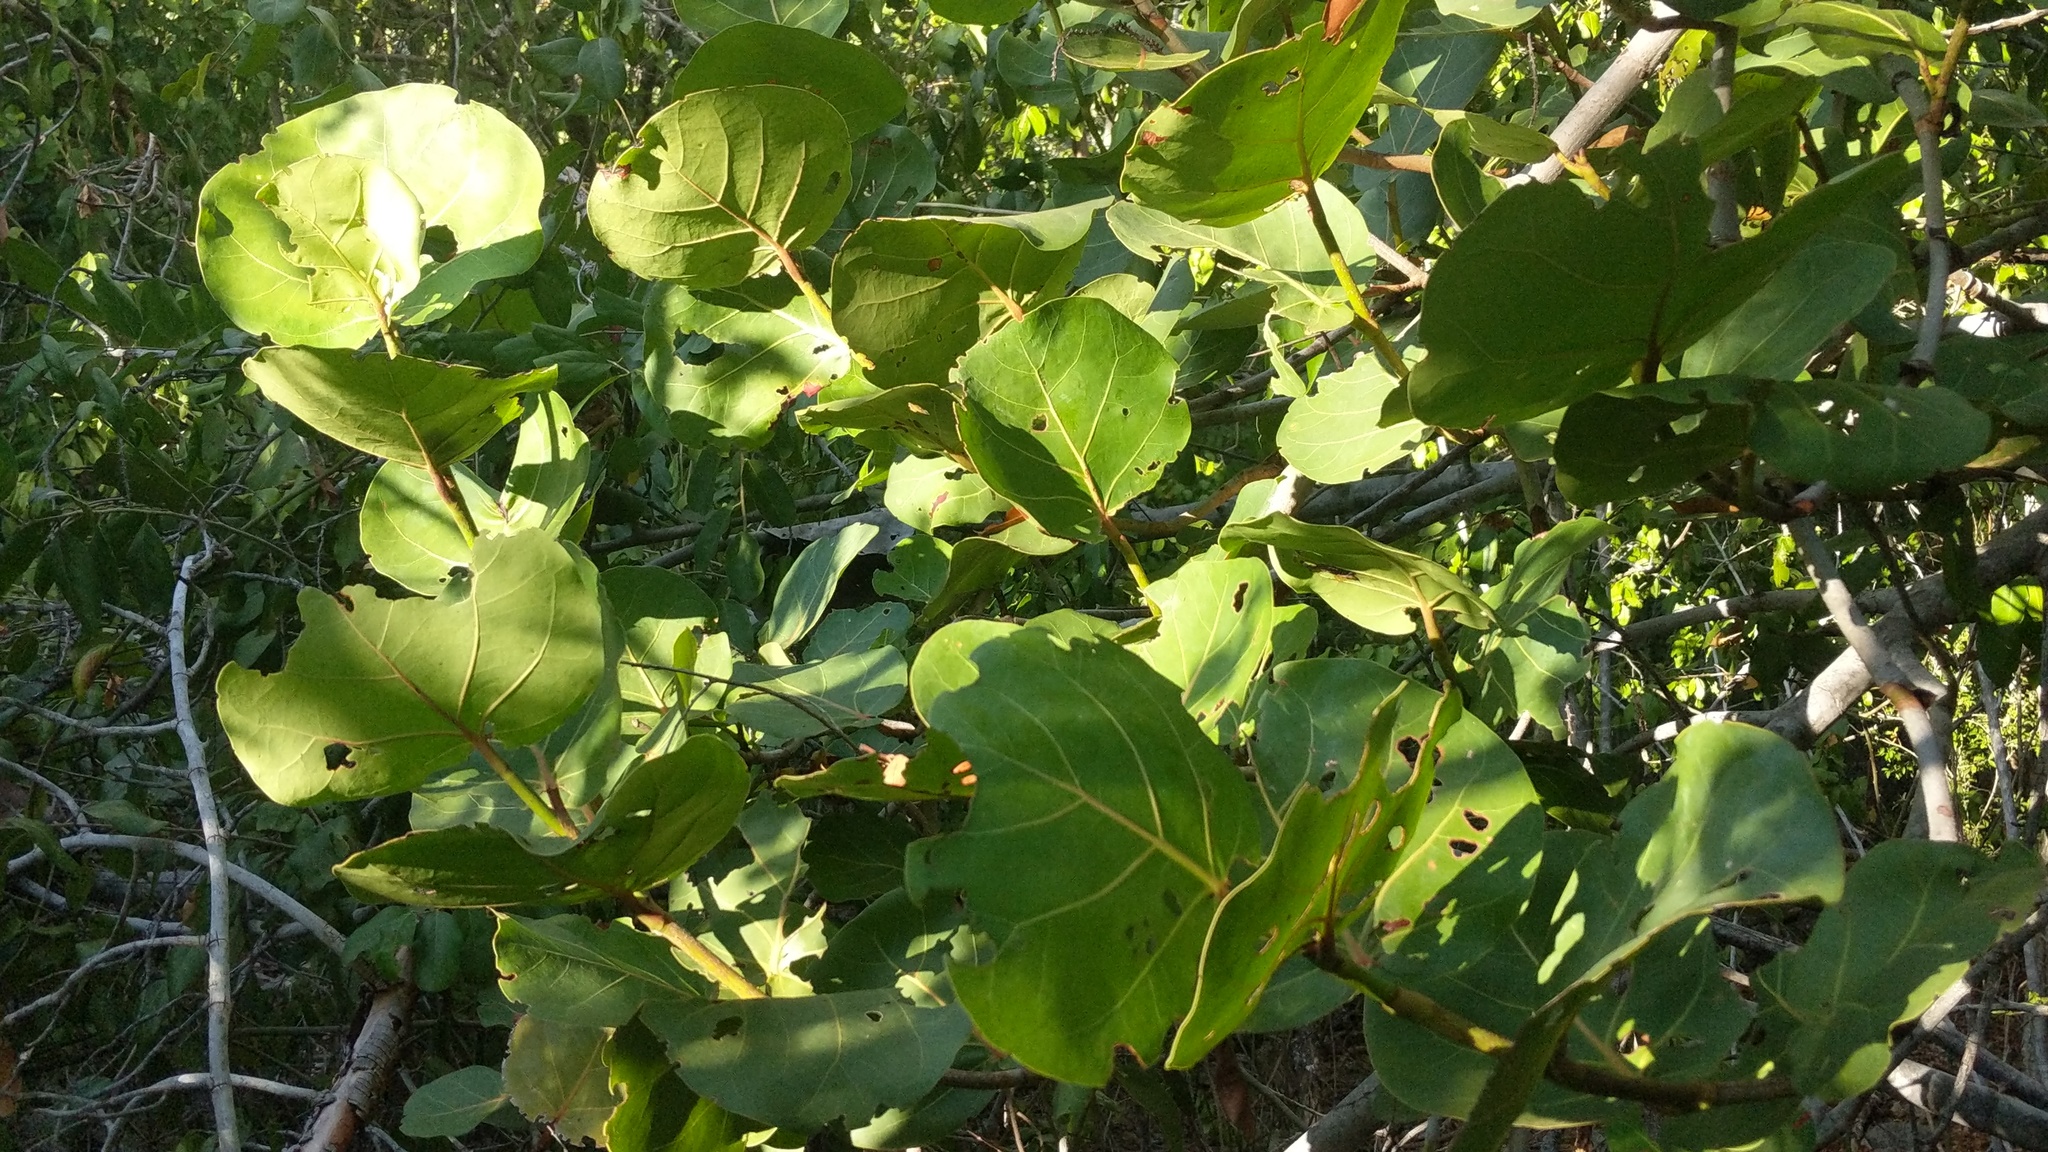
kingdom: Plantae
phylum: Tracheophyta
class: Magnoliopsida
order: Caryophyllales
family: Polygonaceae
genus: Coccoloba
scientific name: Coccoloba uvifera
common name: Seagrape
